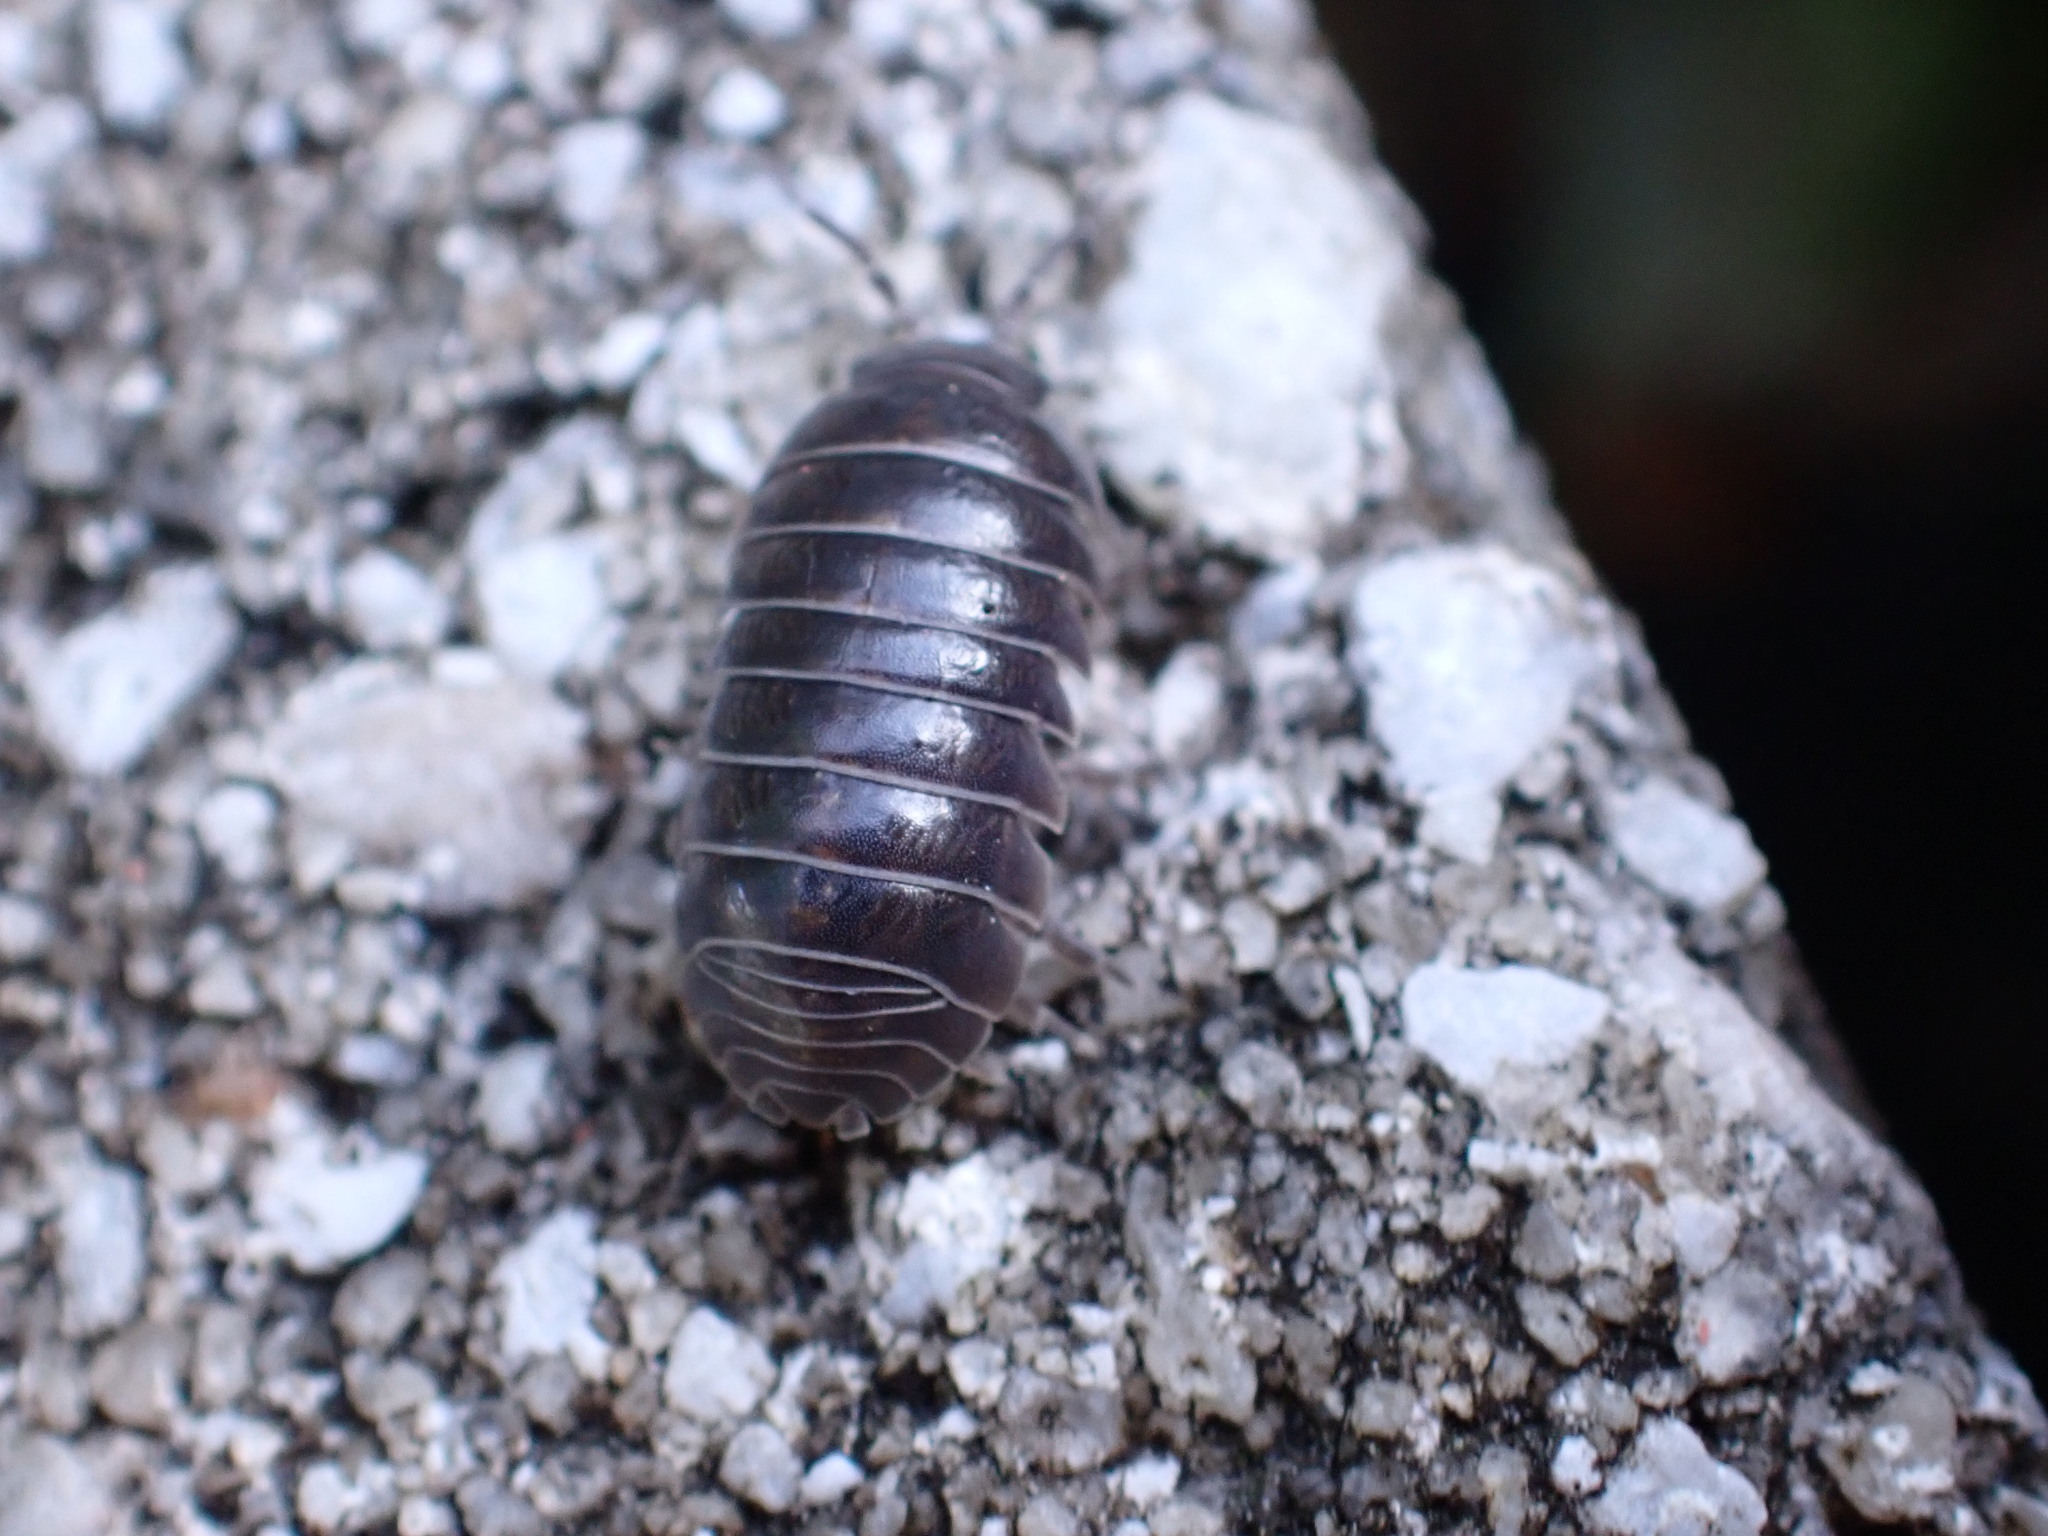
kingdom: Animalia
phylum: Arthropoda
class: Malacostraca
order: Isopoda
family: Armadillidiidae
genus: Armadillidium
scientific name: Armadillidium vulgare
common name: Common pill woodlouse
